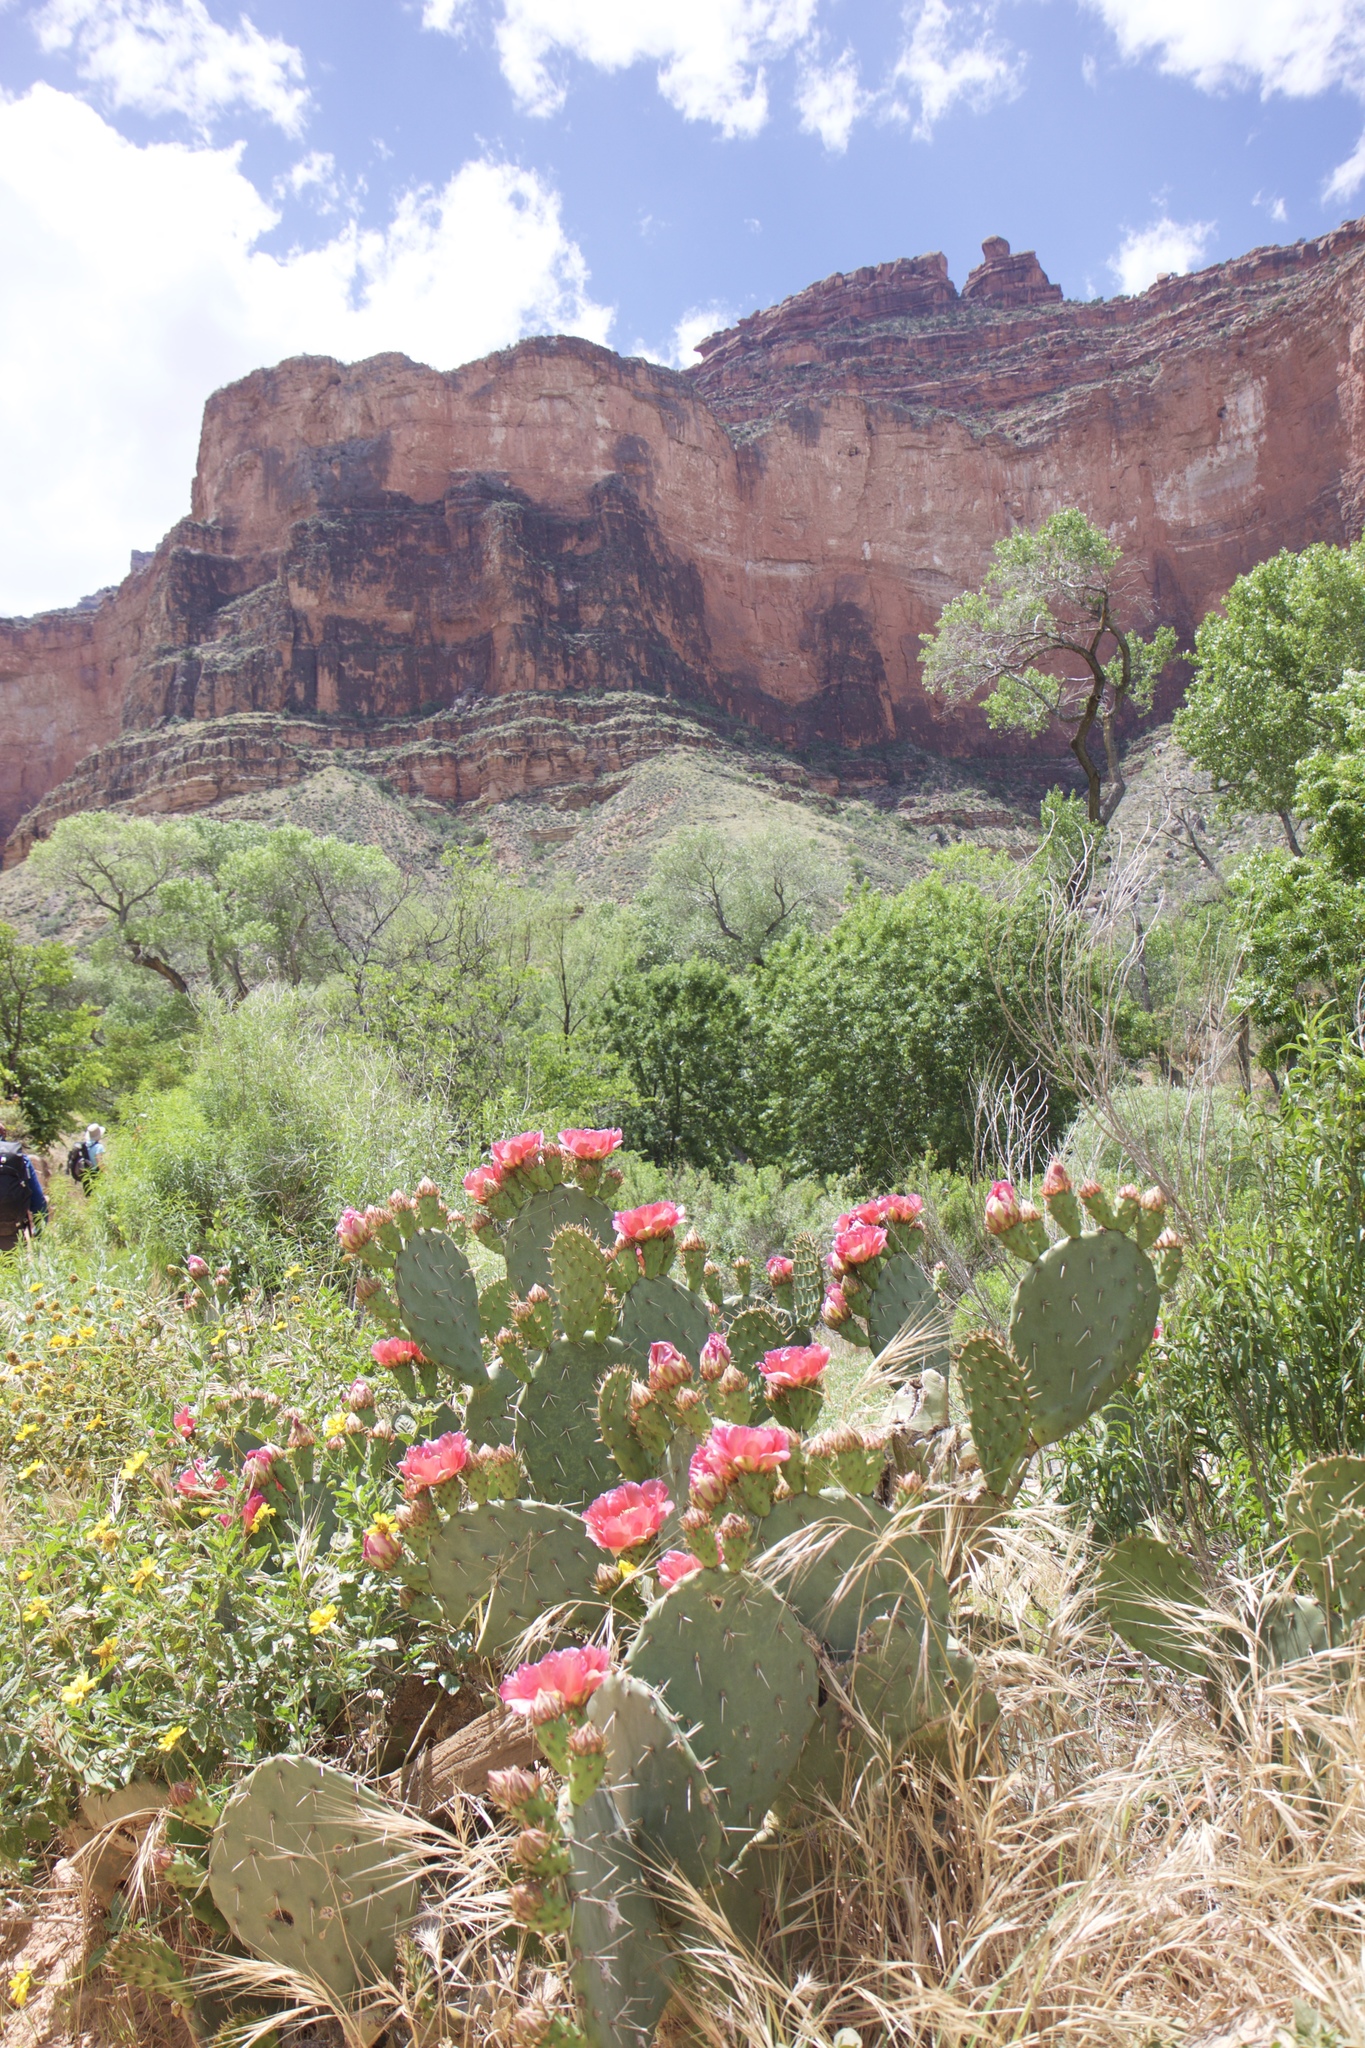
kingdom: Plantae
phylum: Tracheophyta
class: Magnoliopsida
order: Caryophyllales
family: Cactaceae
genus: Opuntia
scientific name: Opuntia engelmannii
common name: Cactus-apple
